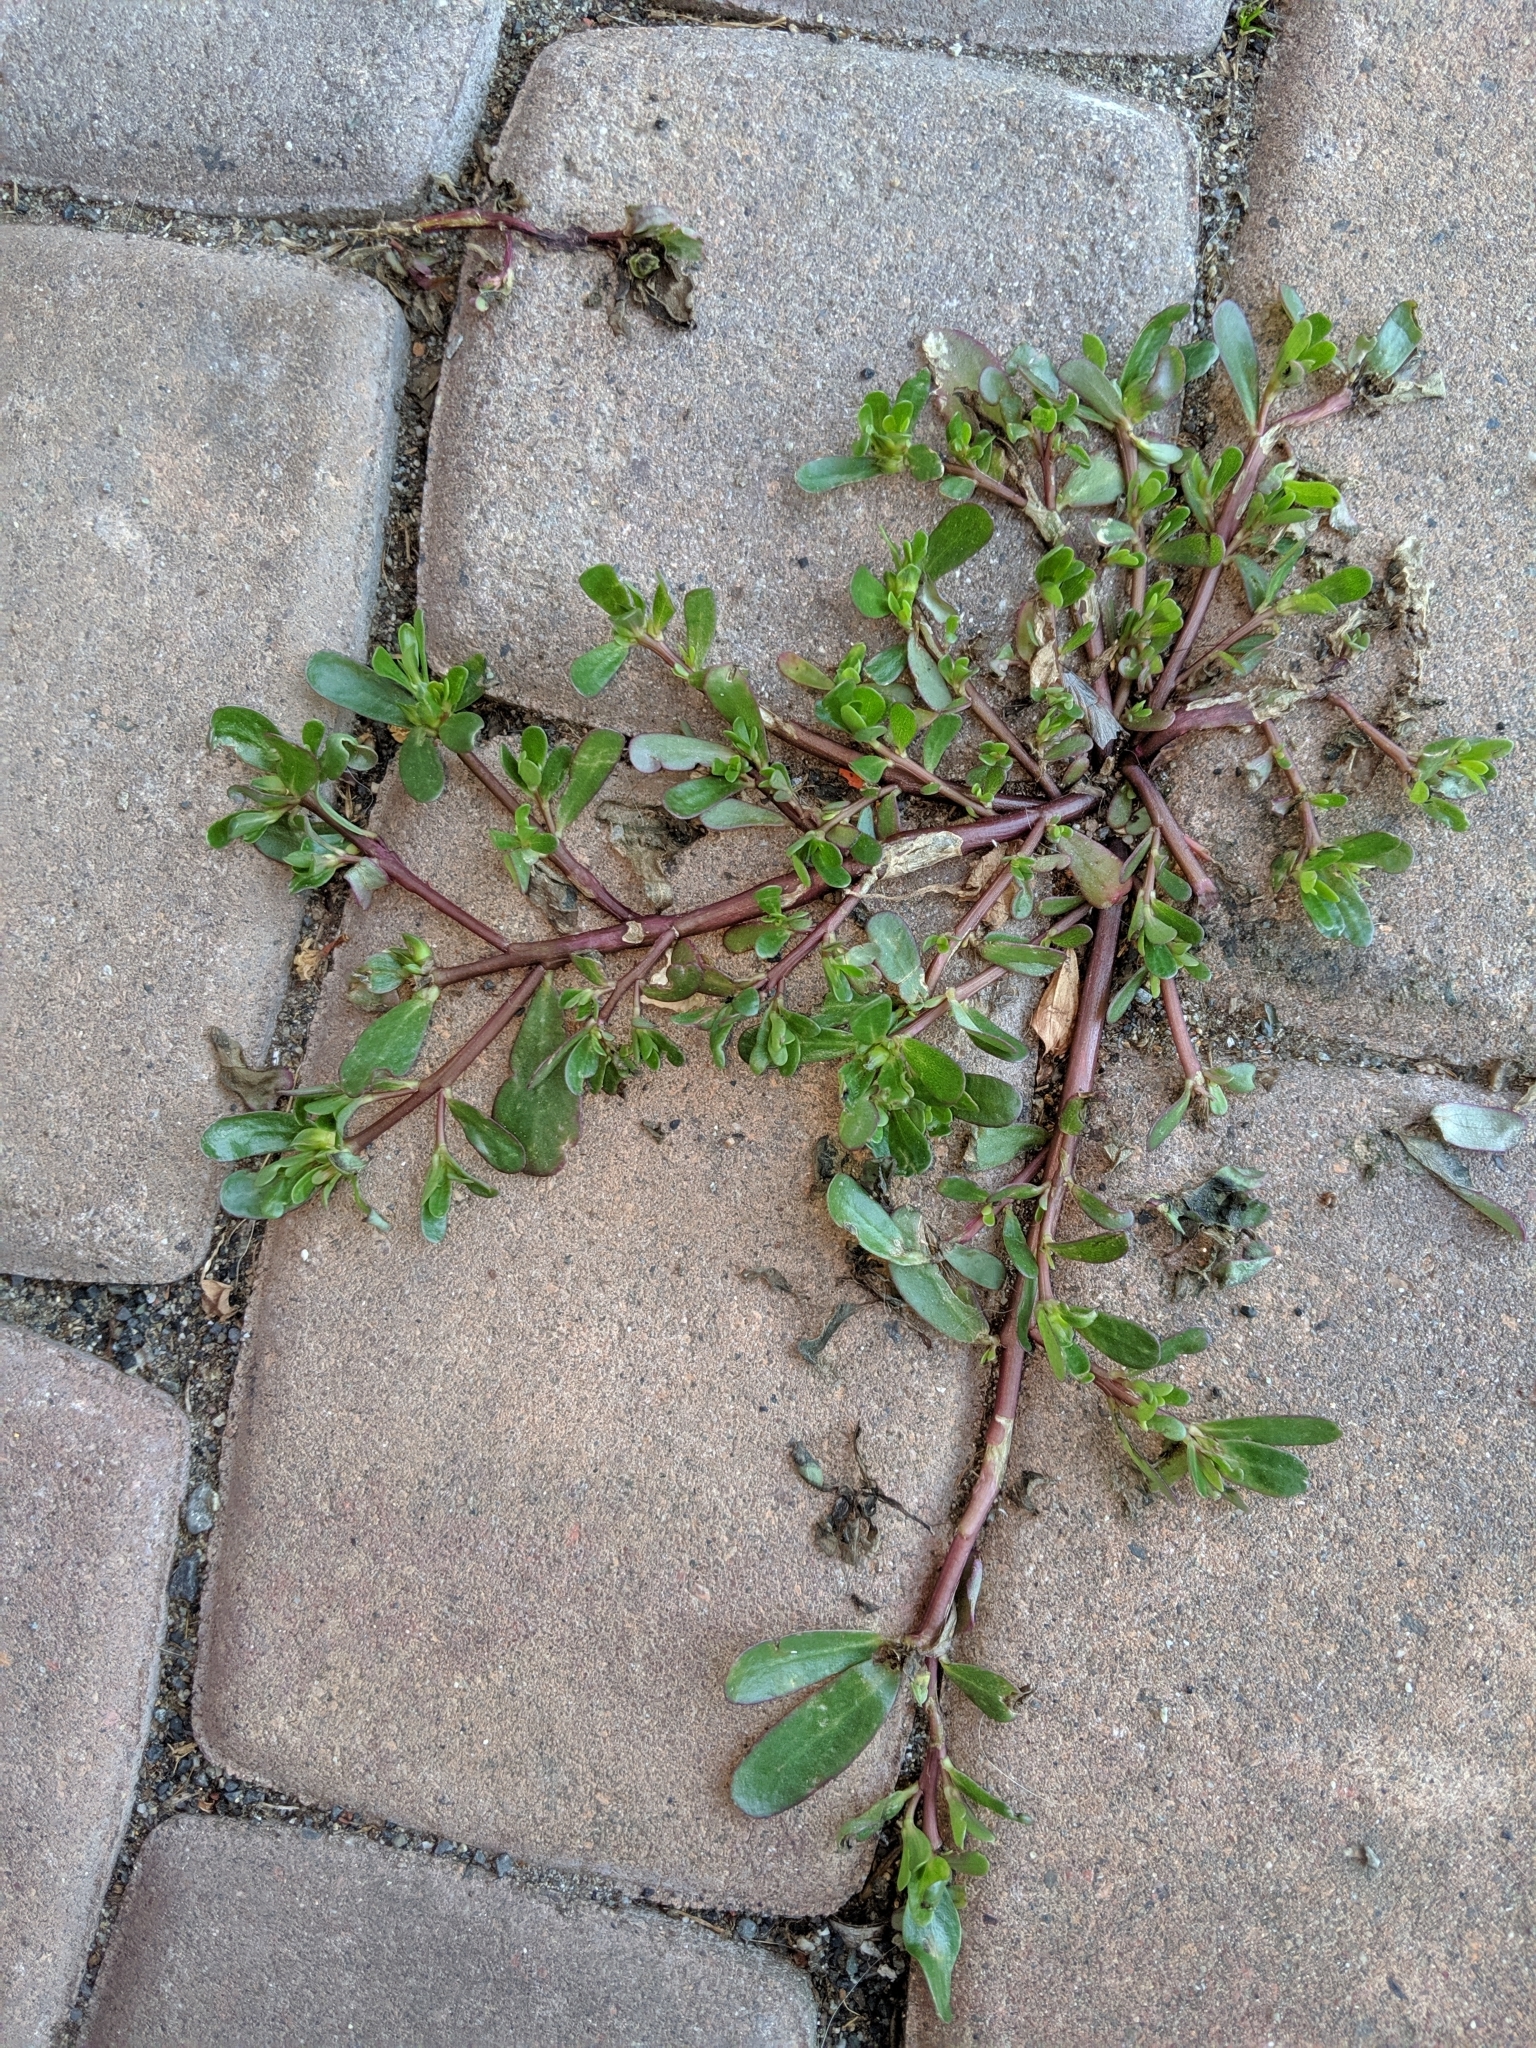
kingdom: Plantae
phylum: Tracheophyta
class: Magnoliopsida
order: Caryophyllales
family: Portulacaceae
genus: Portulaca
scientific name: Portulaca oleracea
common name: Common purslane
